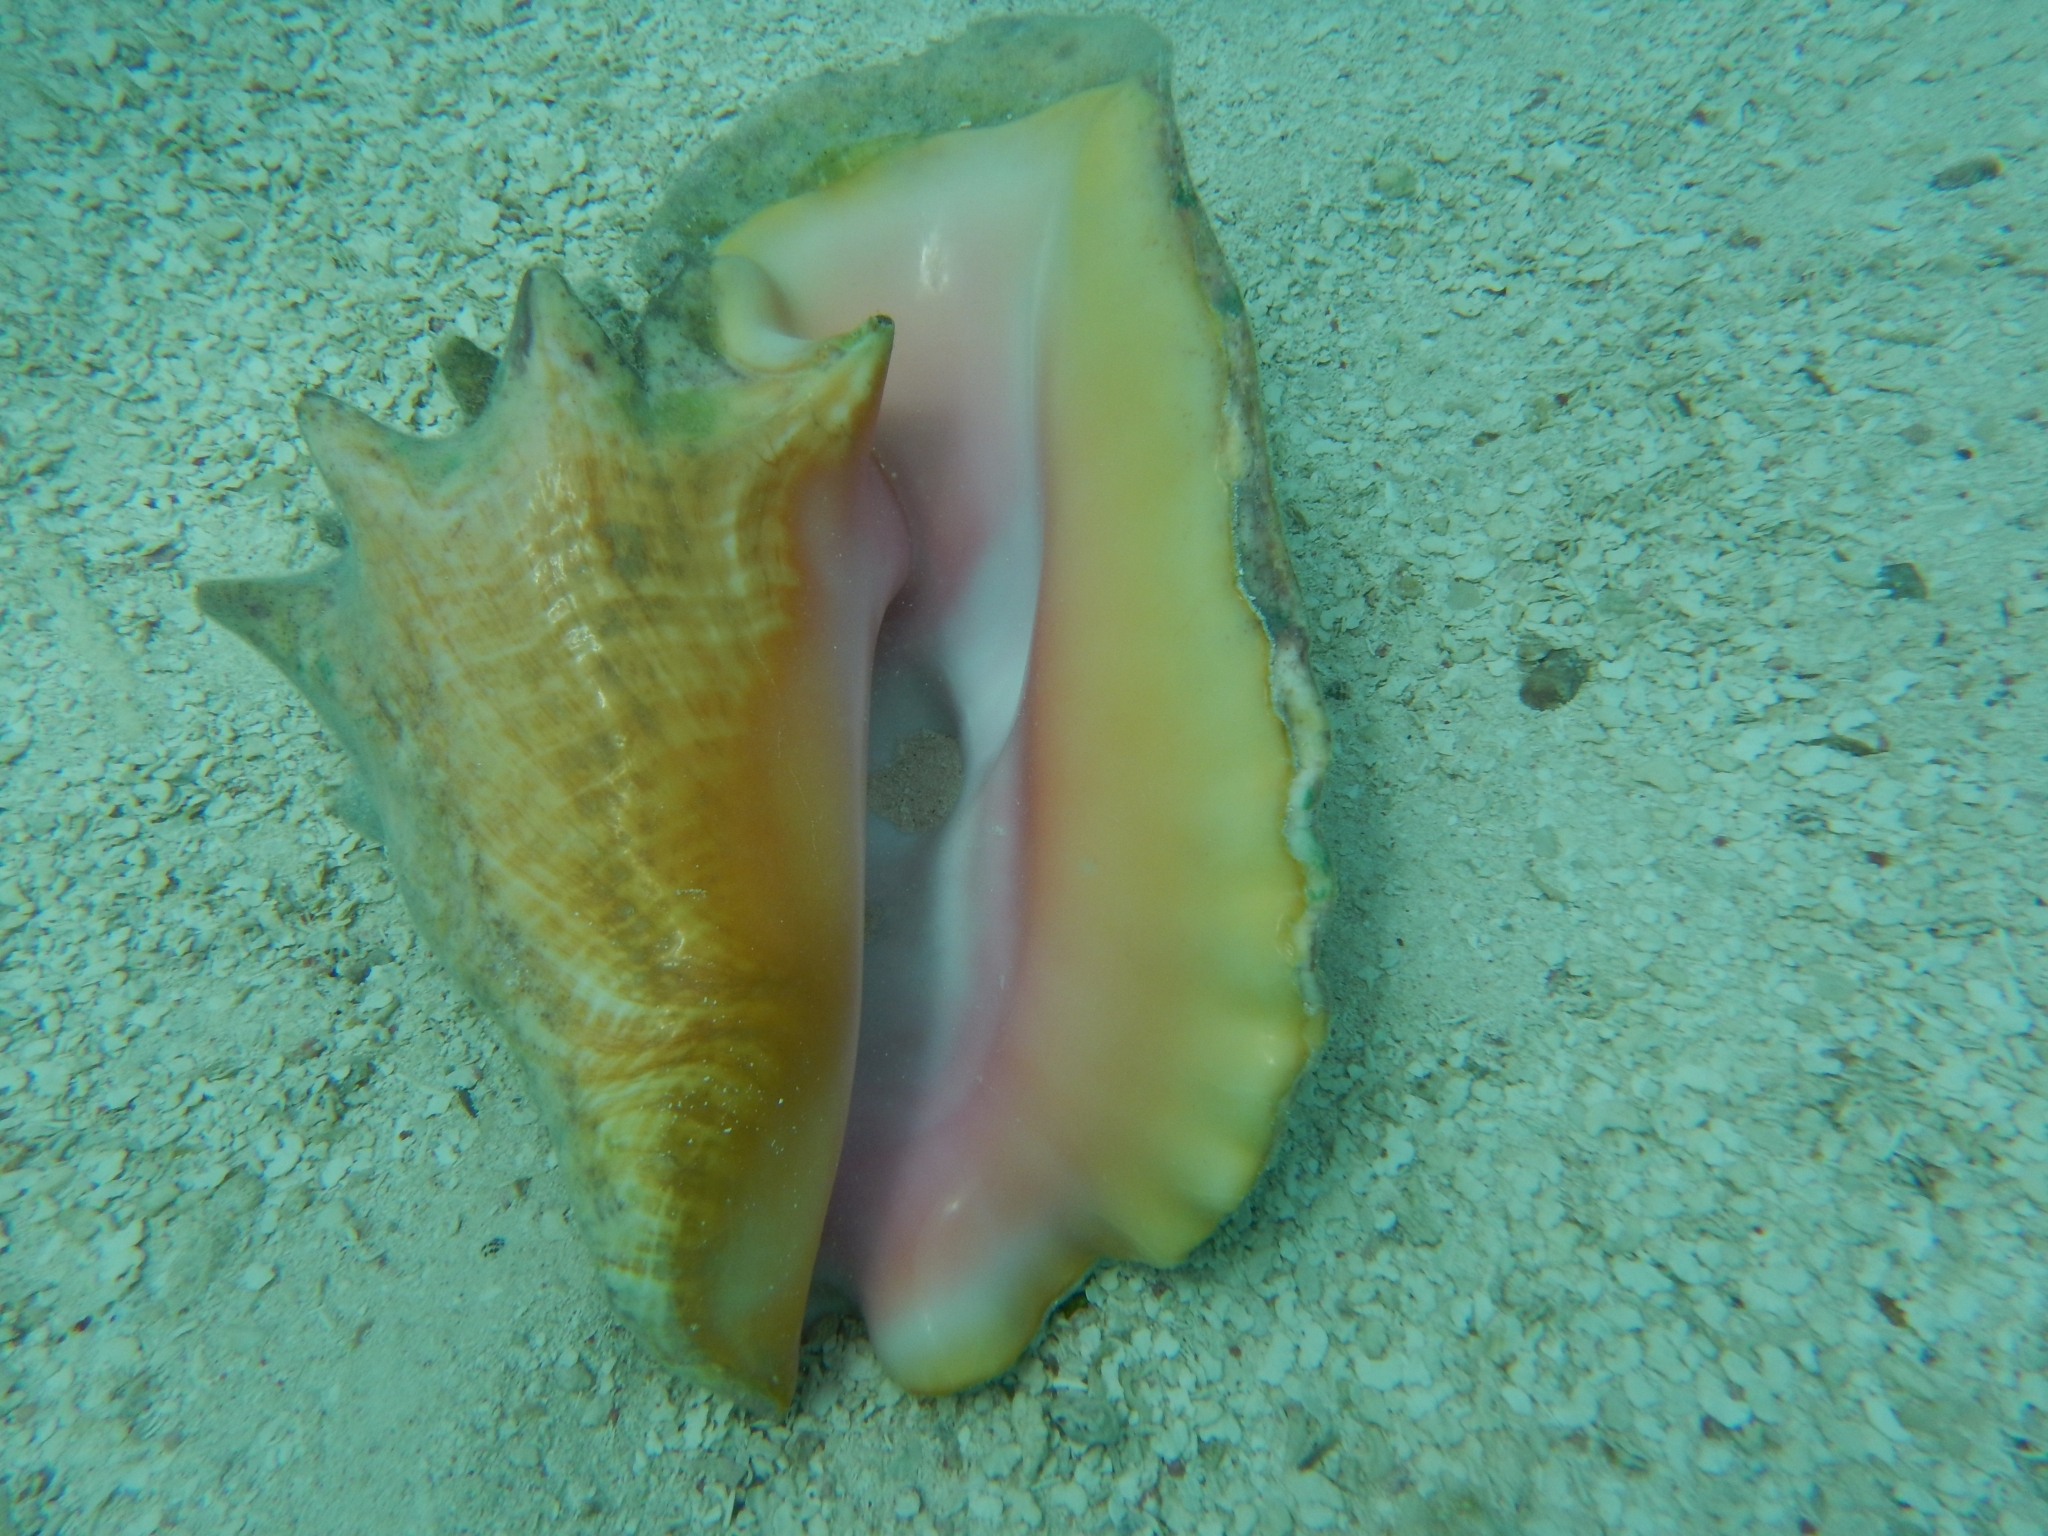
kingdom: Animalia
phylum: Mollusca
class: Gastropoda
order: Littorinimorpha
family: Strombidae
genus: Aliger
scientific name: Aliger gigas
